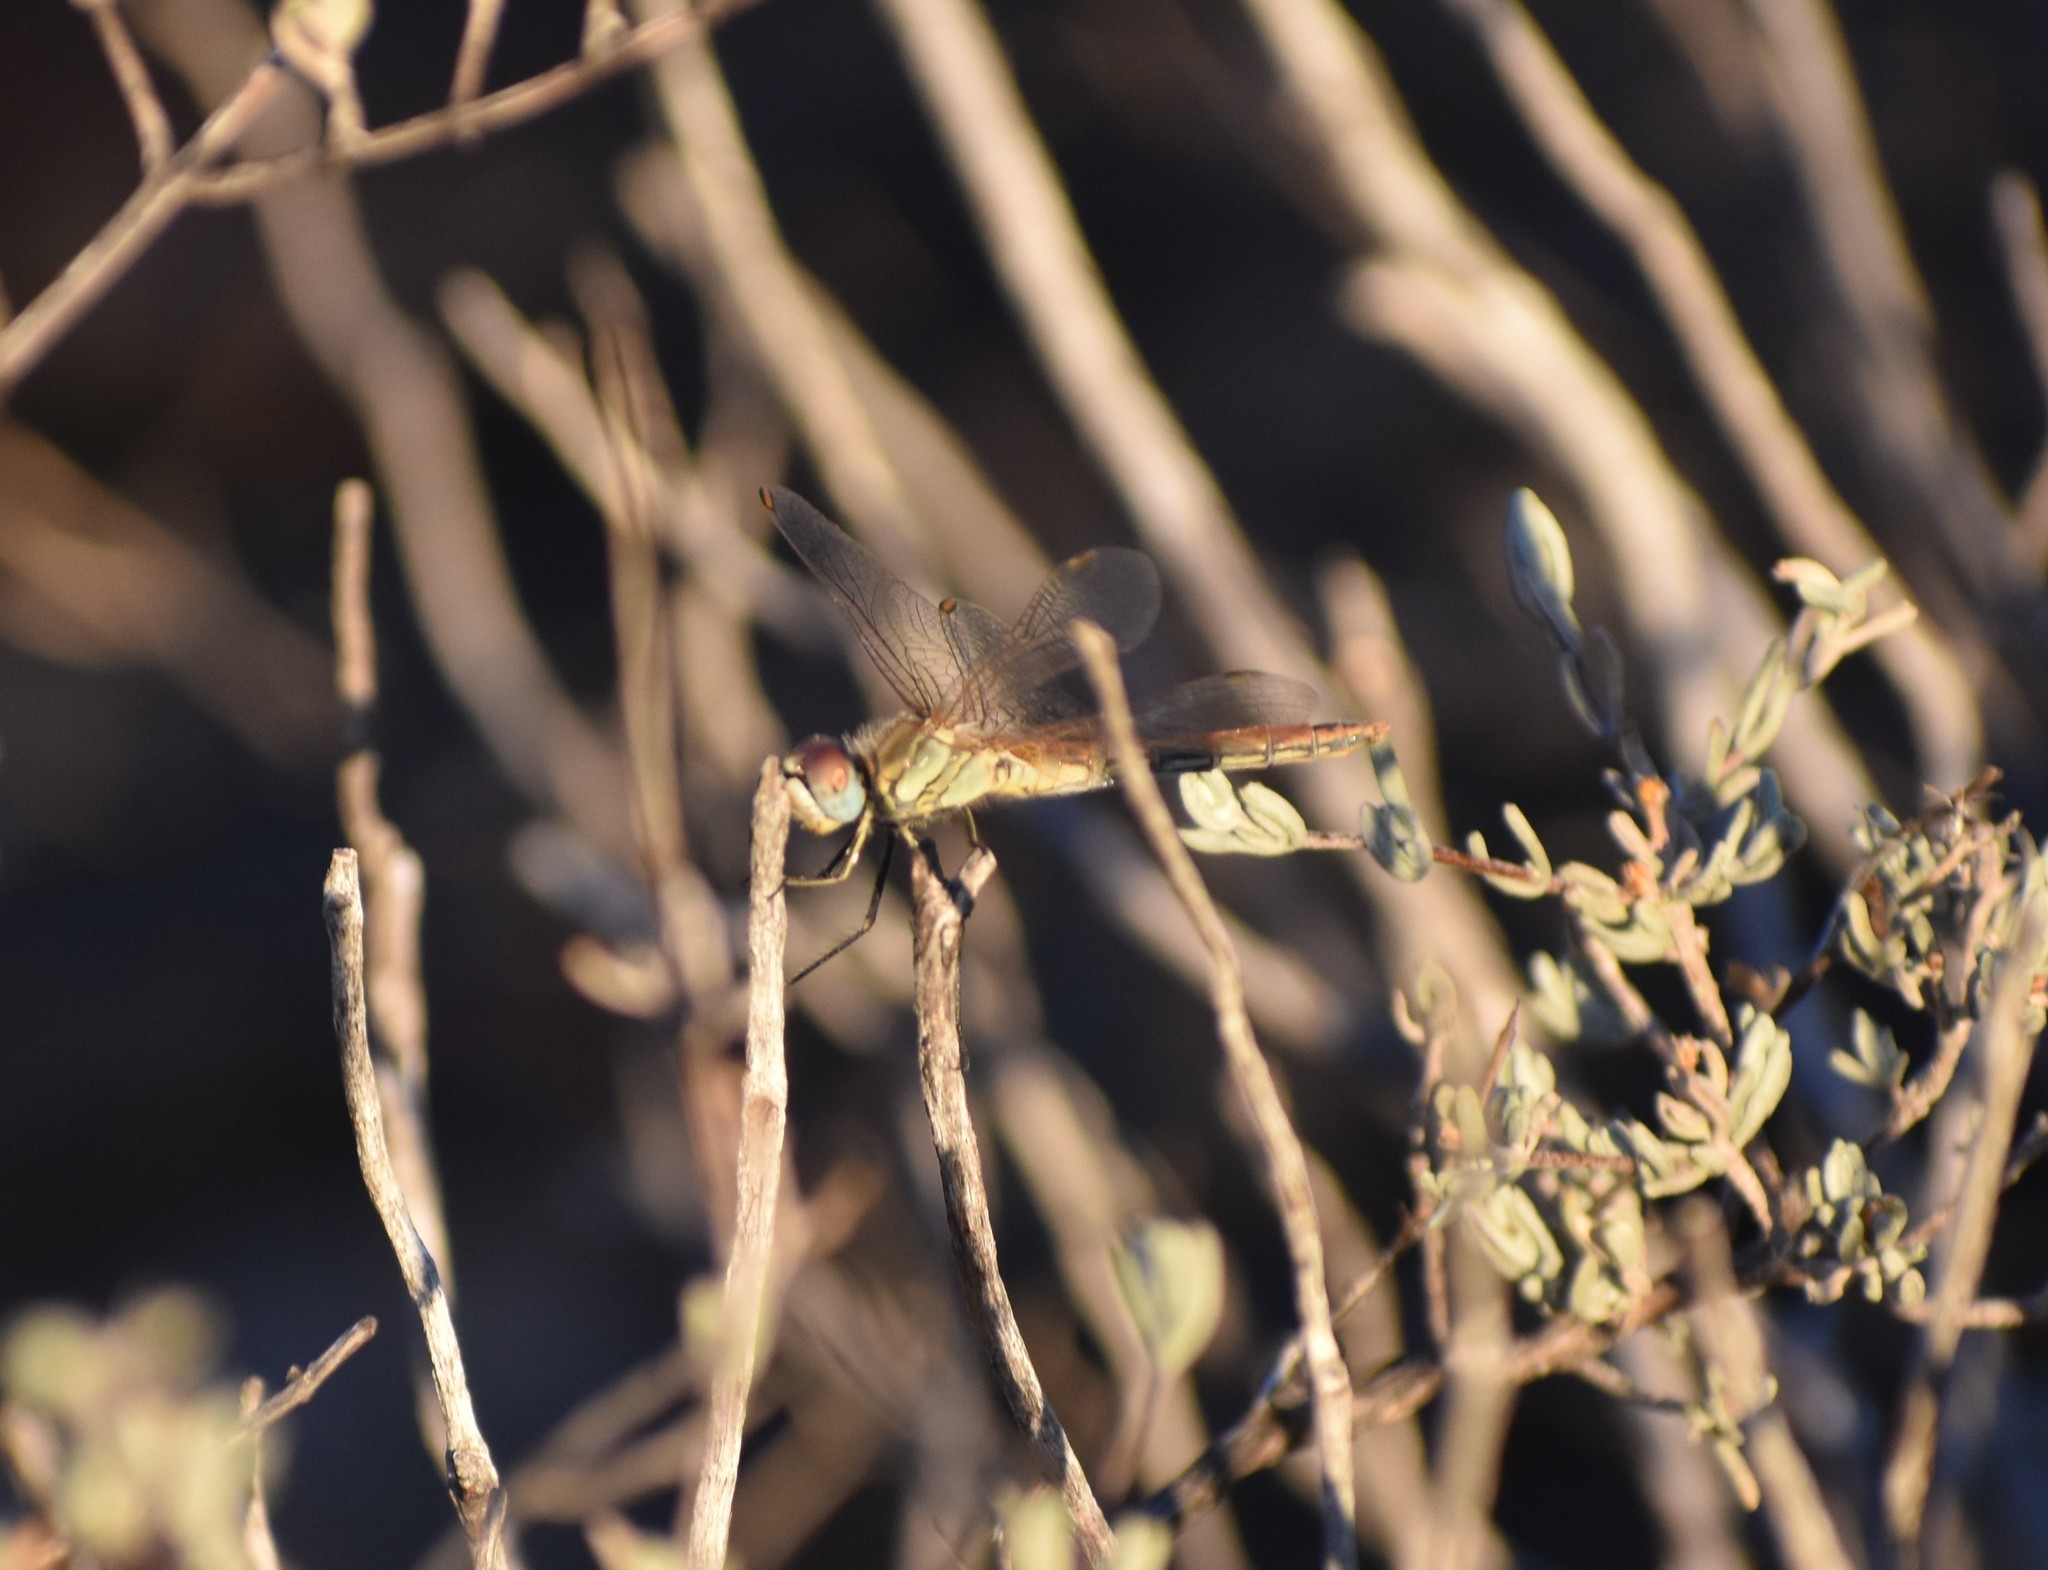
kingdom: Animalia
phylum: Arthropoda
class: Insecta
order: Odonata
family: Libellulidae
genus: Sympetrum
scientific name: Sympetrum fonscolombii
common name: Red-veined darter
